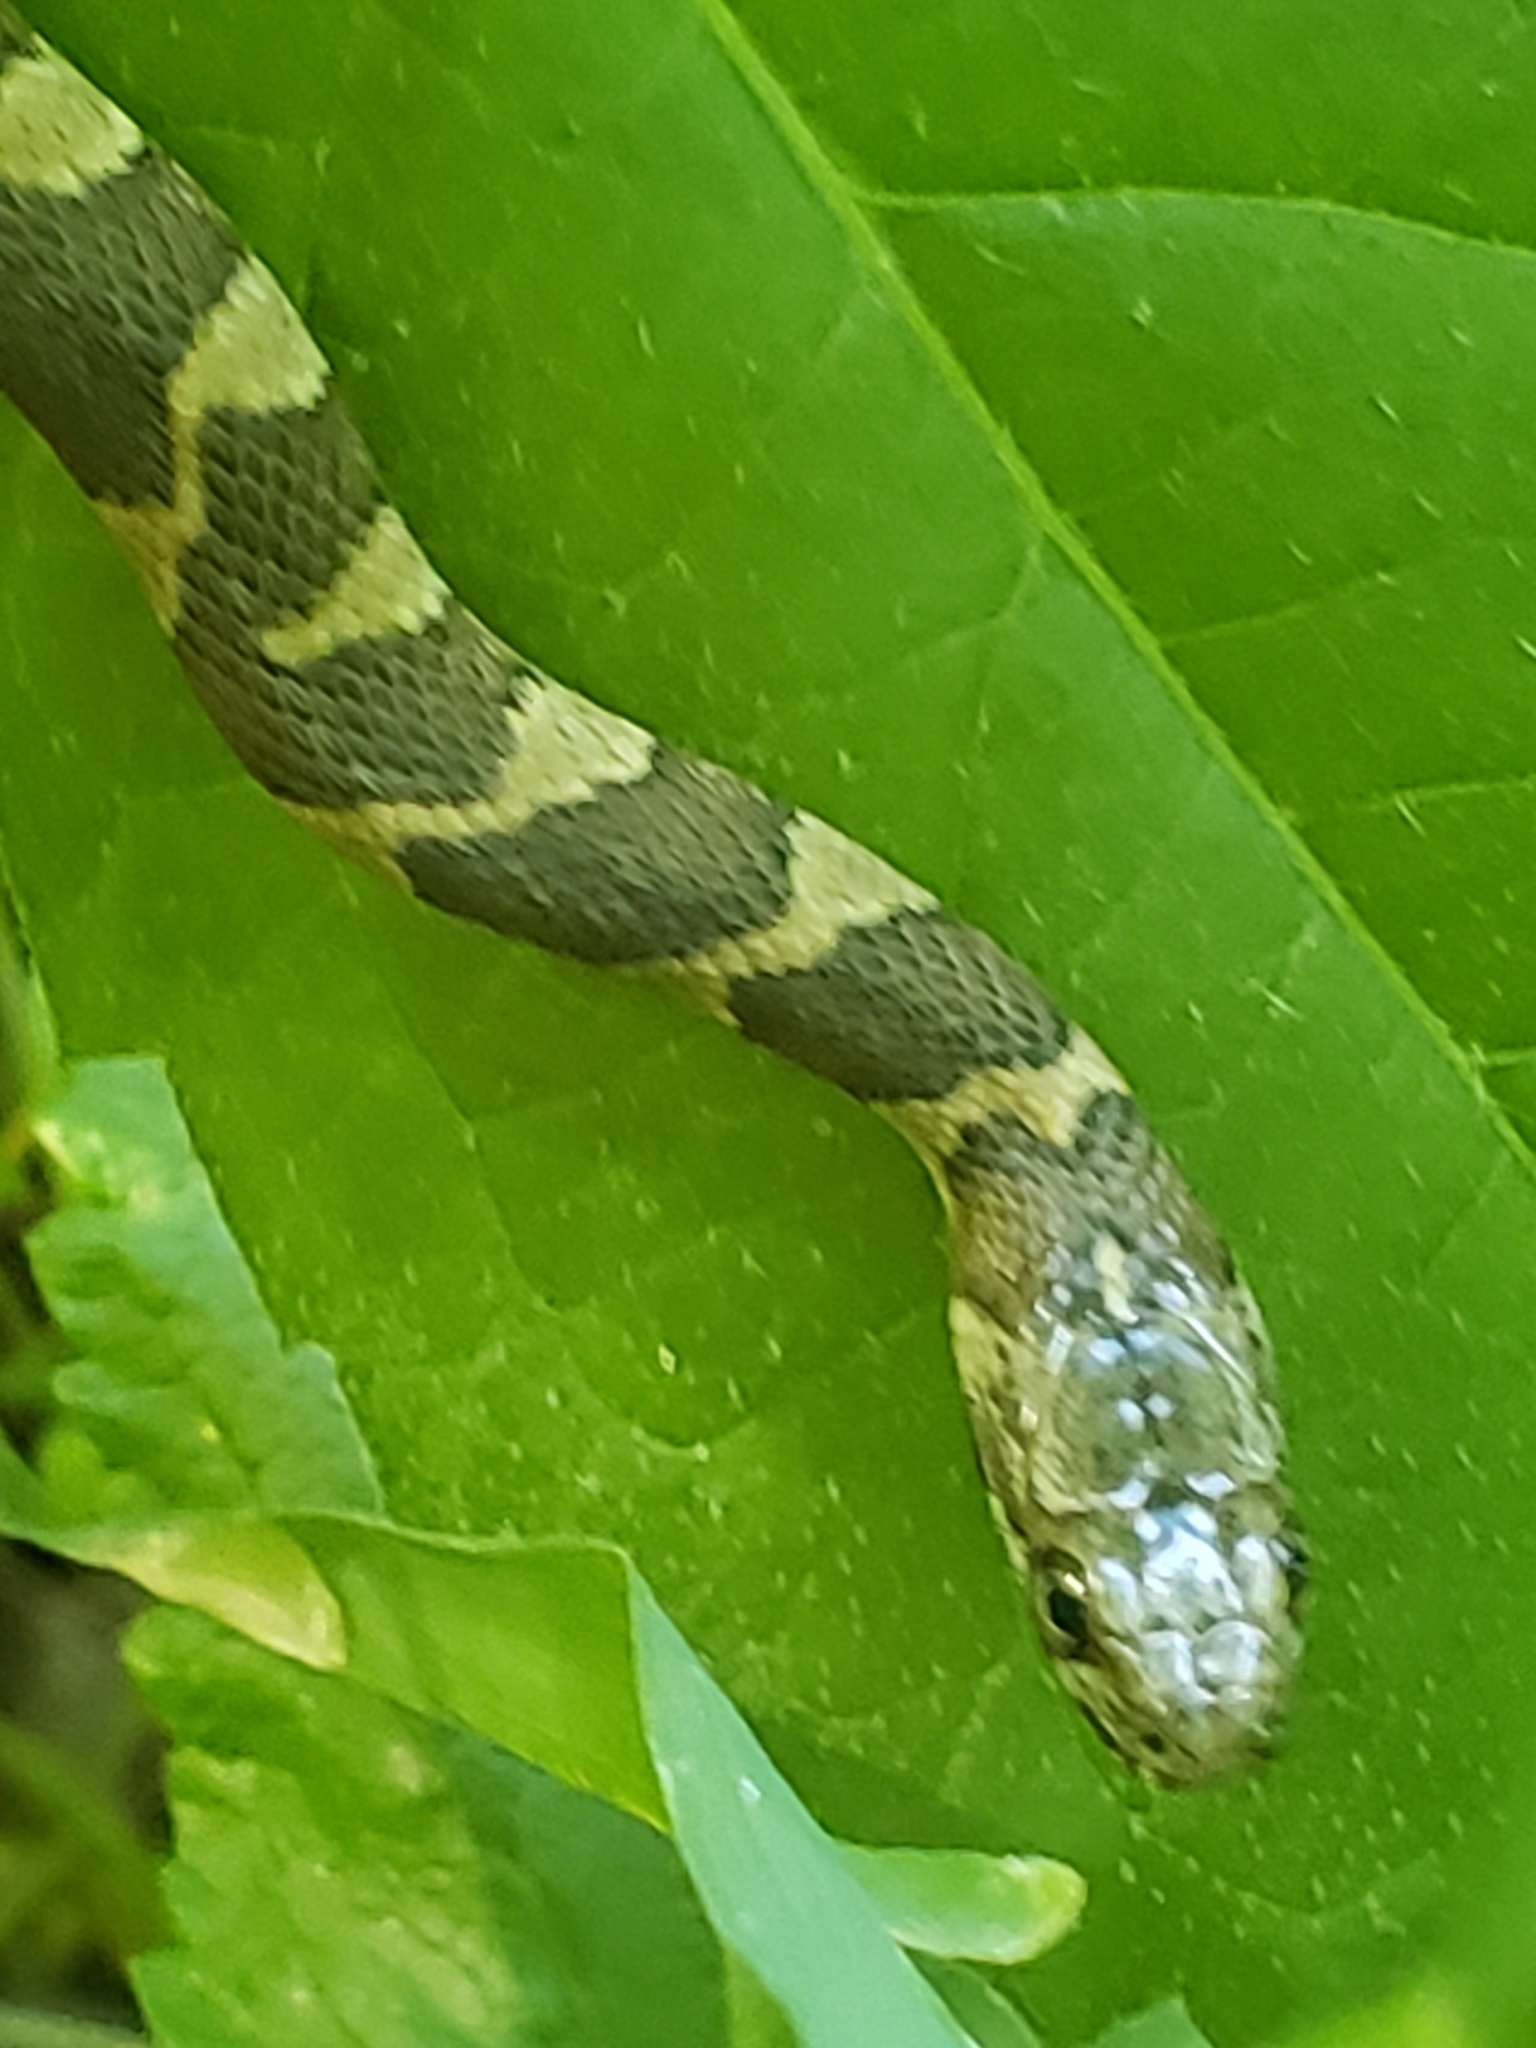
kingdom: Animalia
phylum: Chordata
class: Squamata
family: Colubridae
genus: Nerodia
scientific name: Nerodia sipedon
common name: Northern water snake
